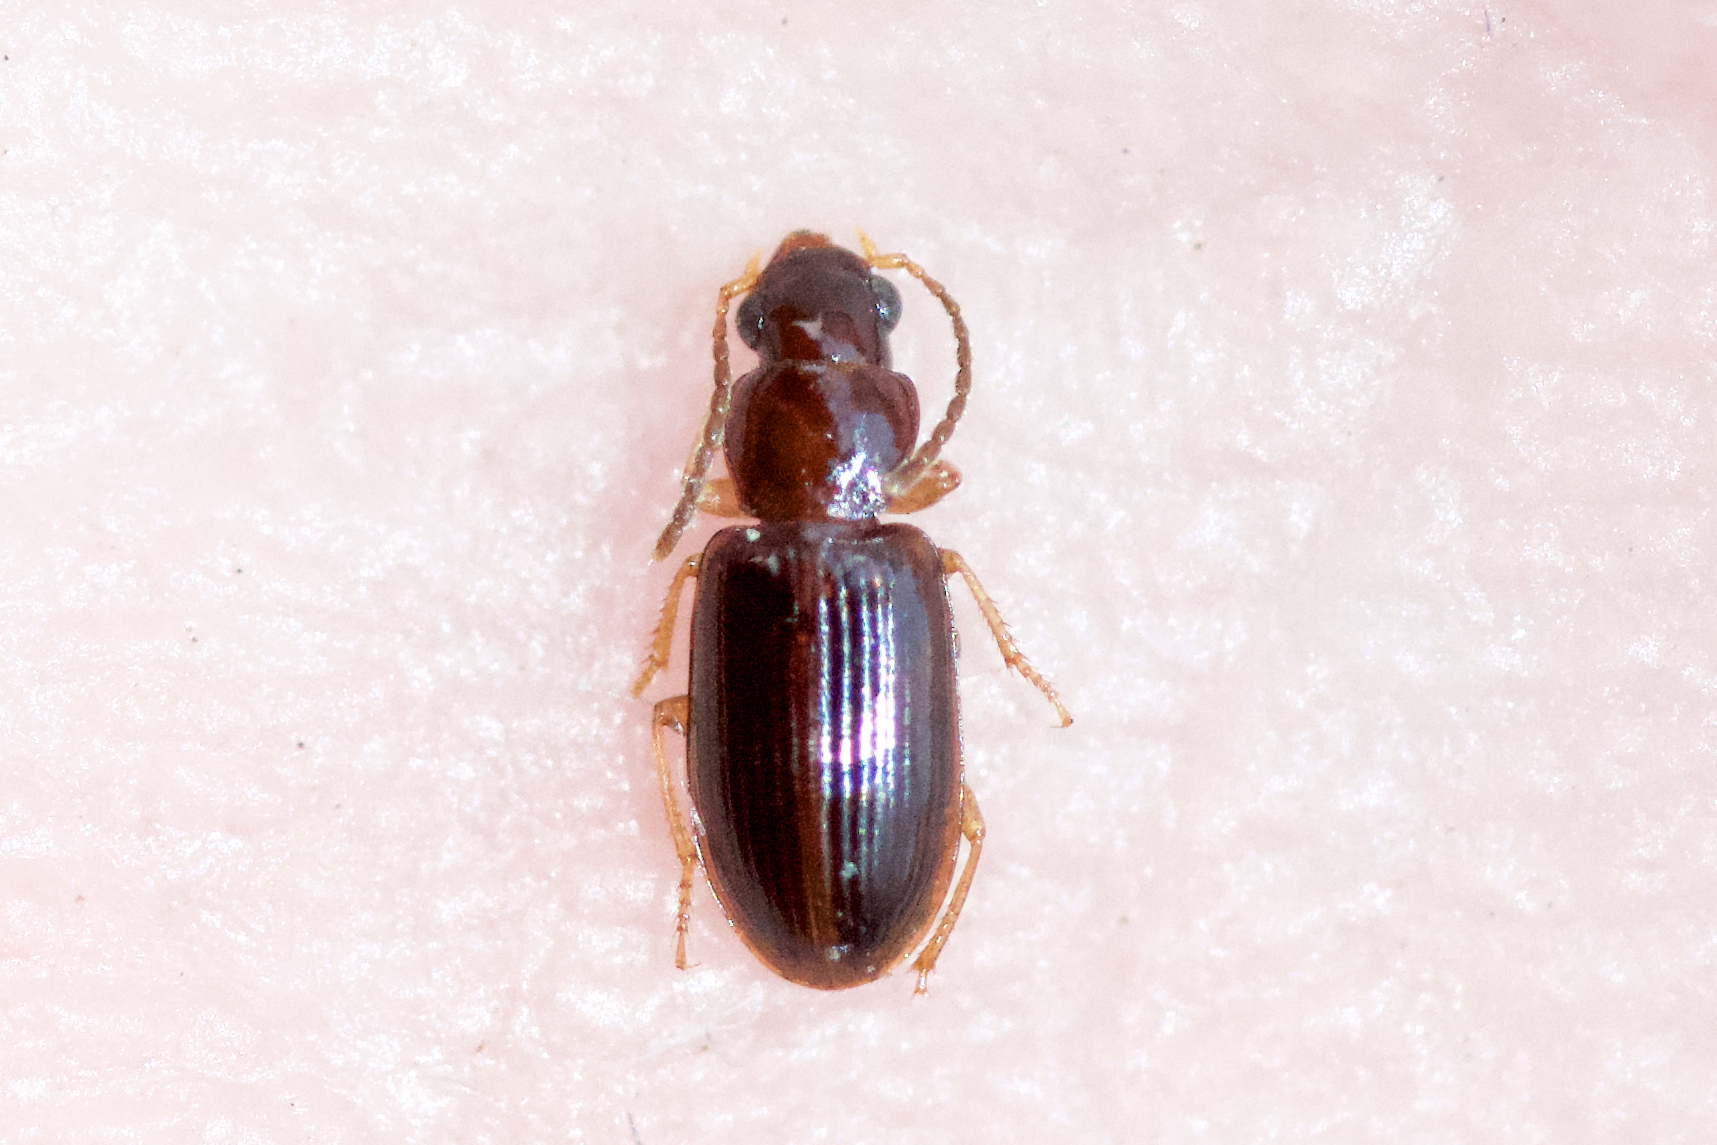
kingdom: Animalia
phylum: Arthropoda
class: Insecta
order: Coleoptera
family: Carabidae
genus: Bradycellus
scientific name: Bradycellus tantillus
